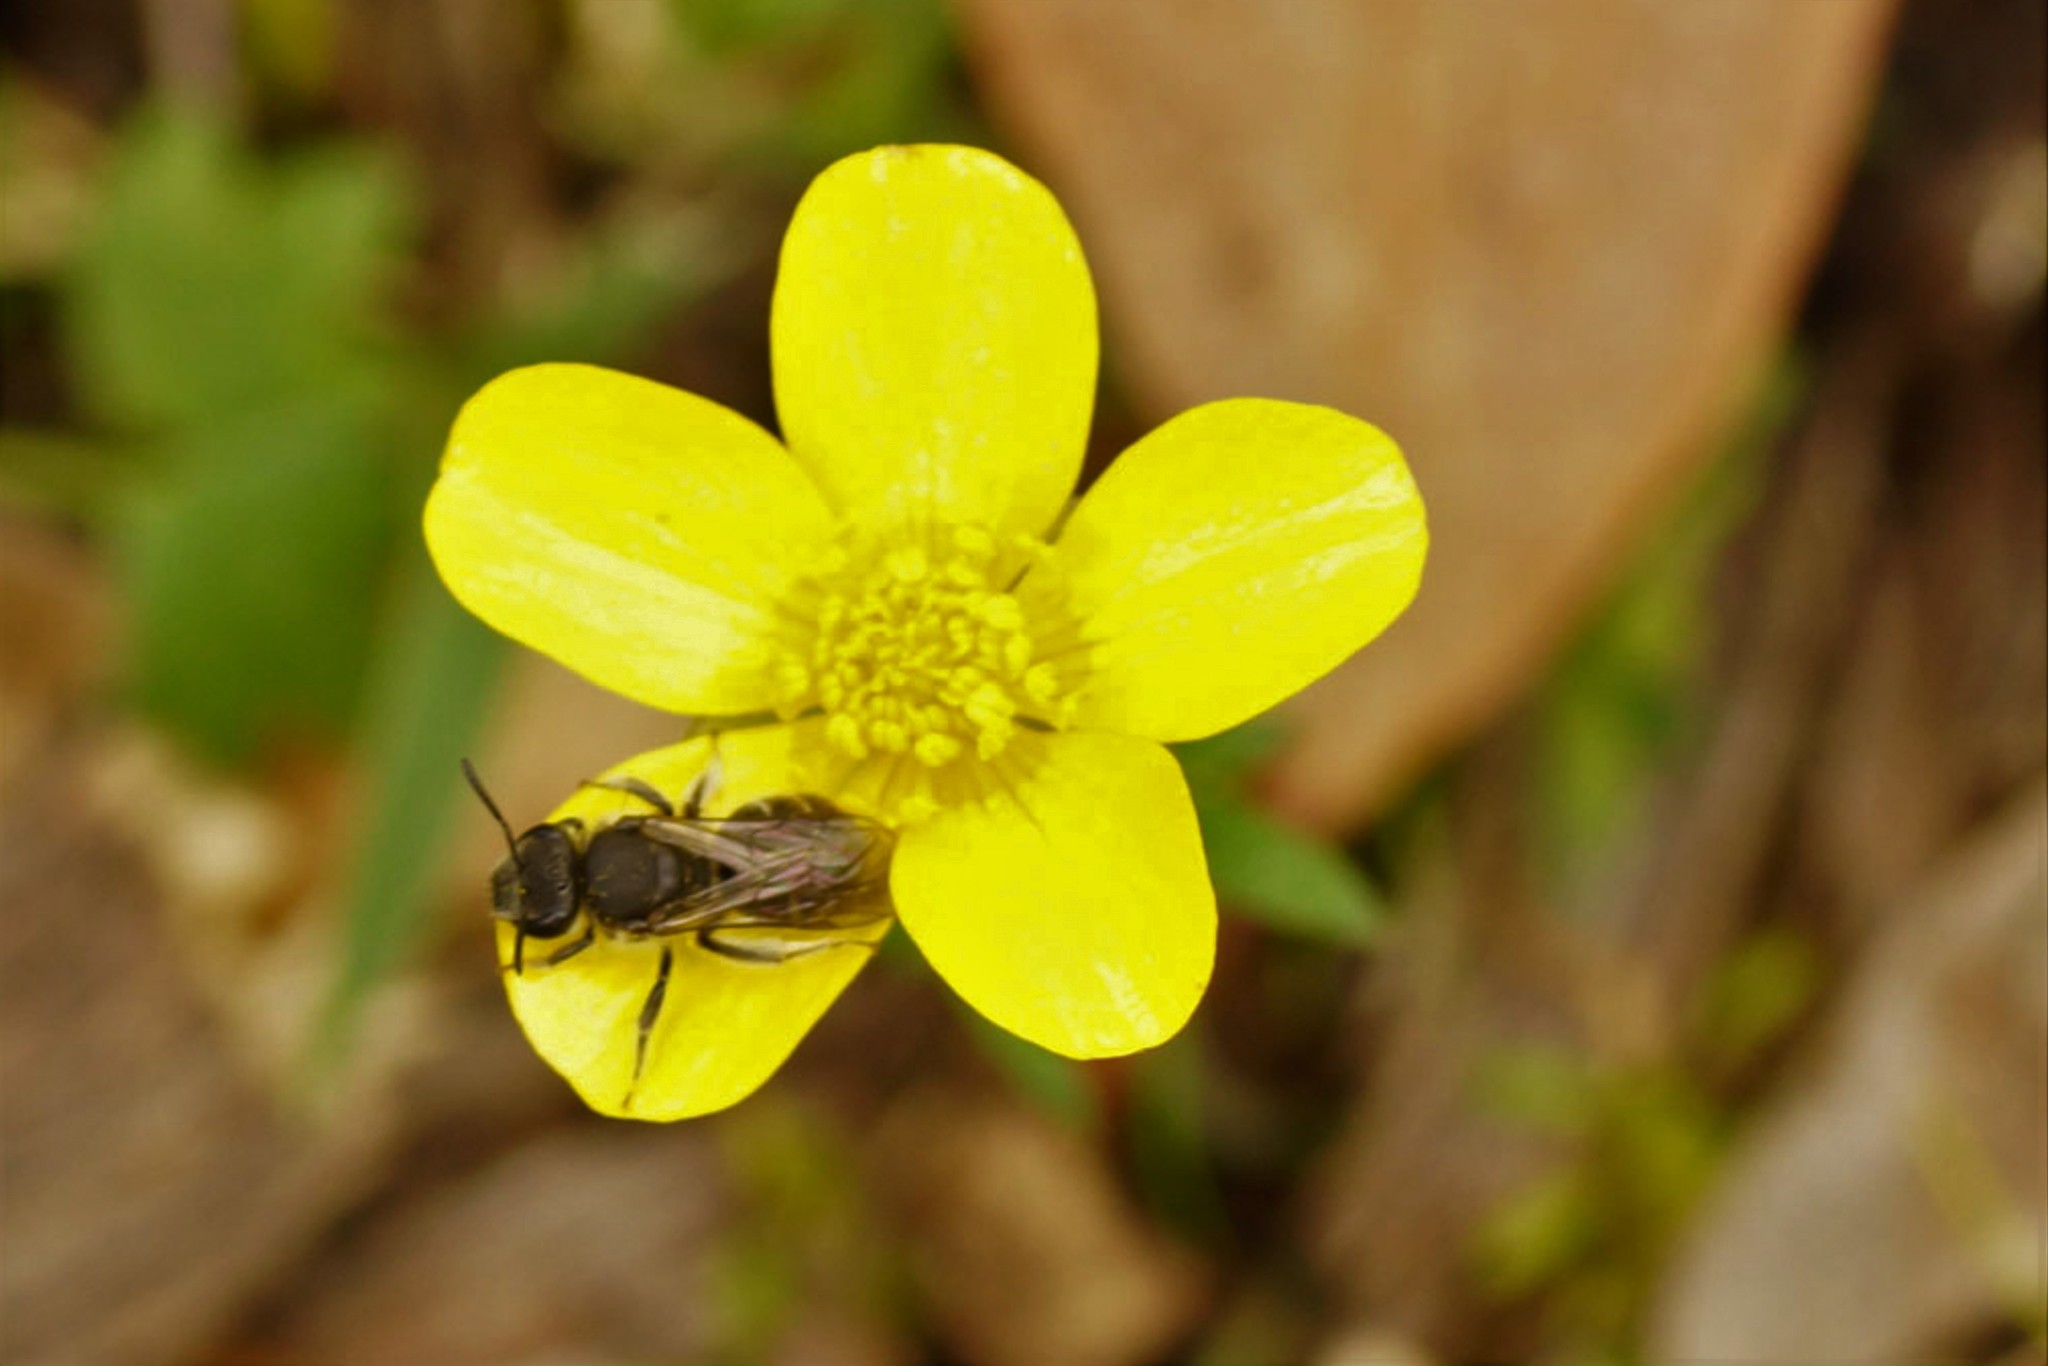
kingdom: Animalia
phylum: Arthropoda
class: Insecta
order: Hymenoptera
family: Halictidae
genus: Lasioglossum
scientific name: Lasioglossum
